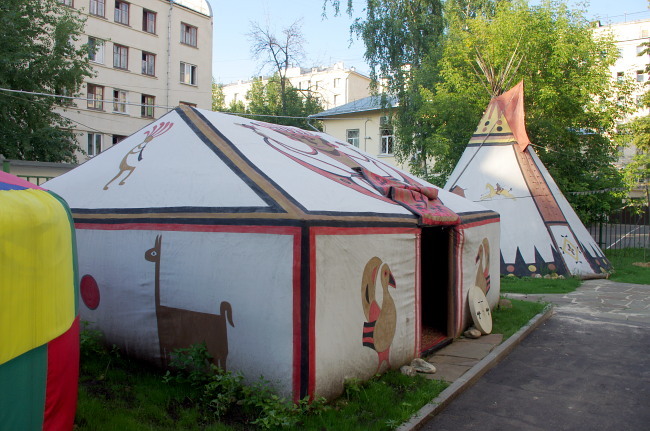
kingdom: Plantae
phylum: Tracheophyta
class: Magnoliopsida
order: Sapindales
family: Sapindaceae
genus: Acer
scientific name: Acer negundo
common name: Ashleaf maple
